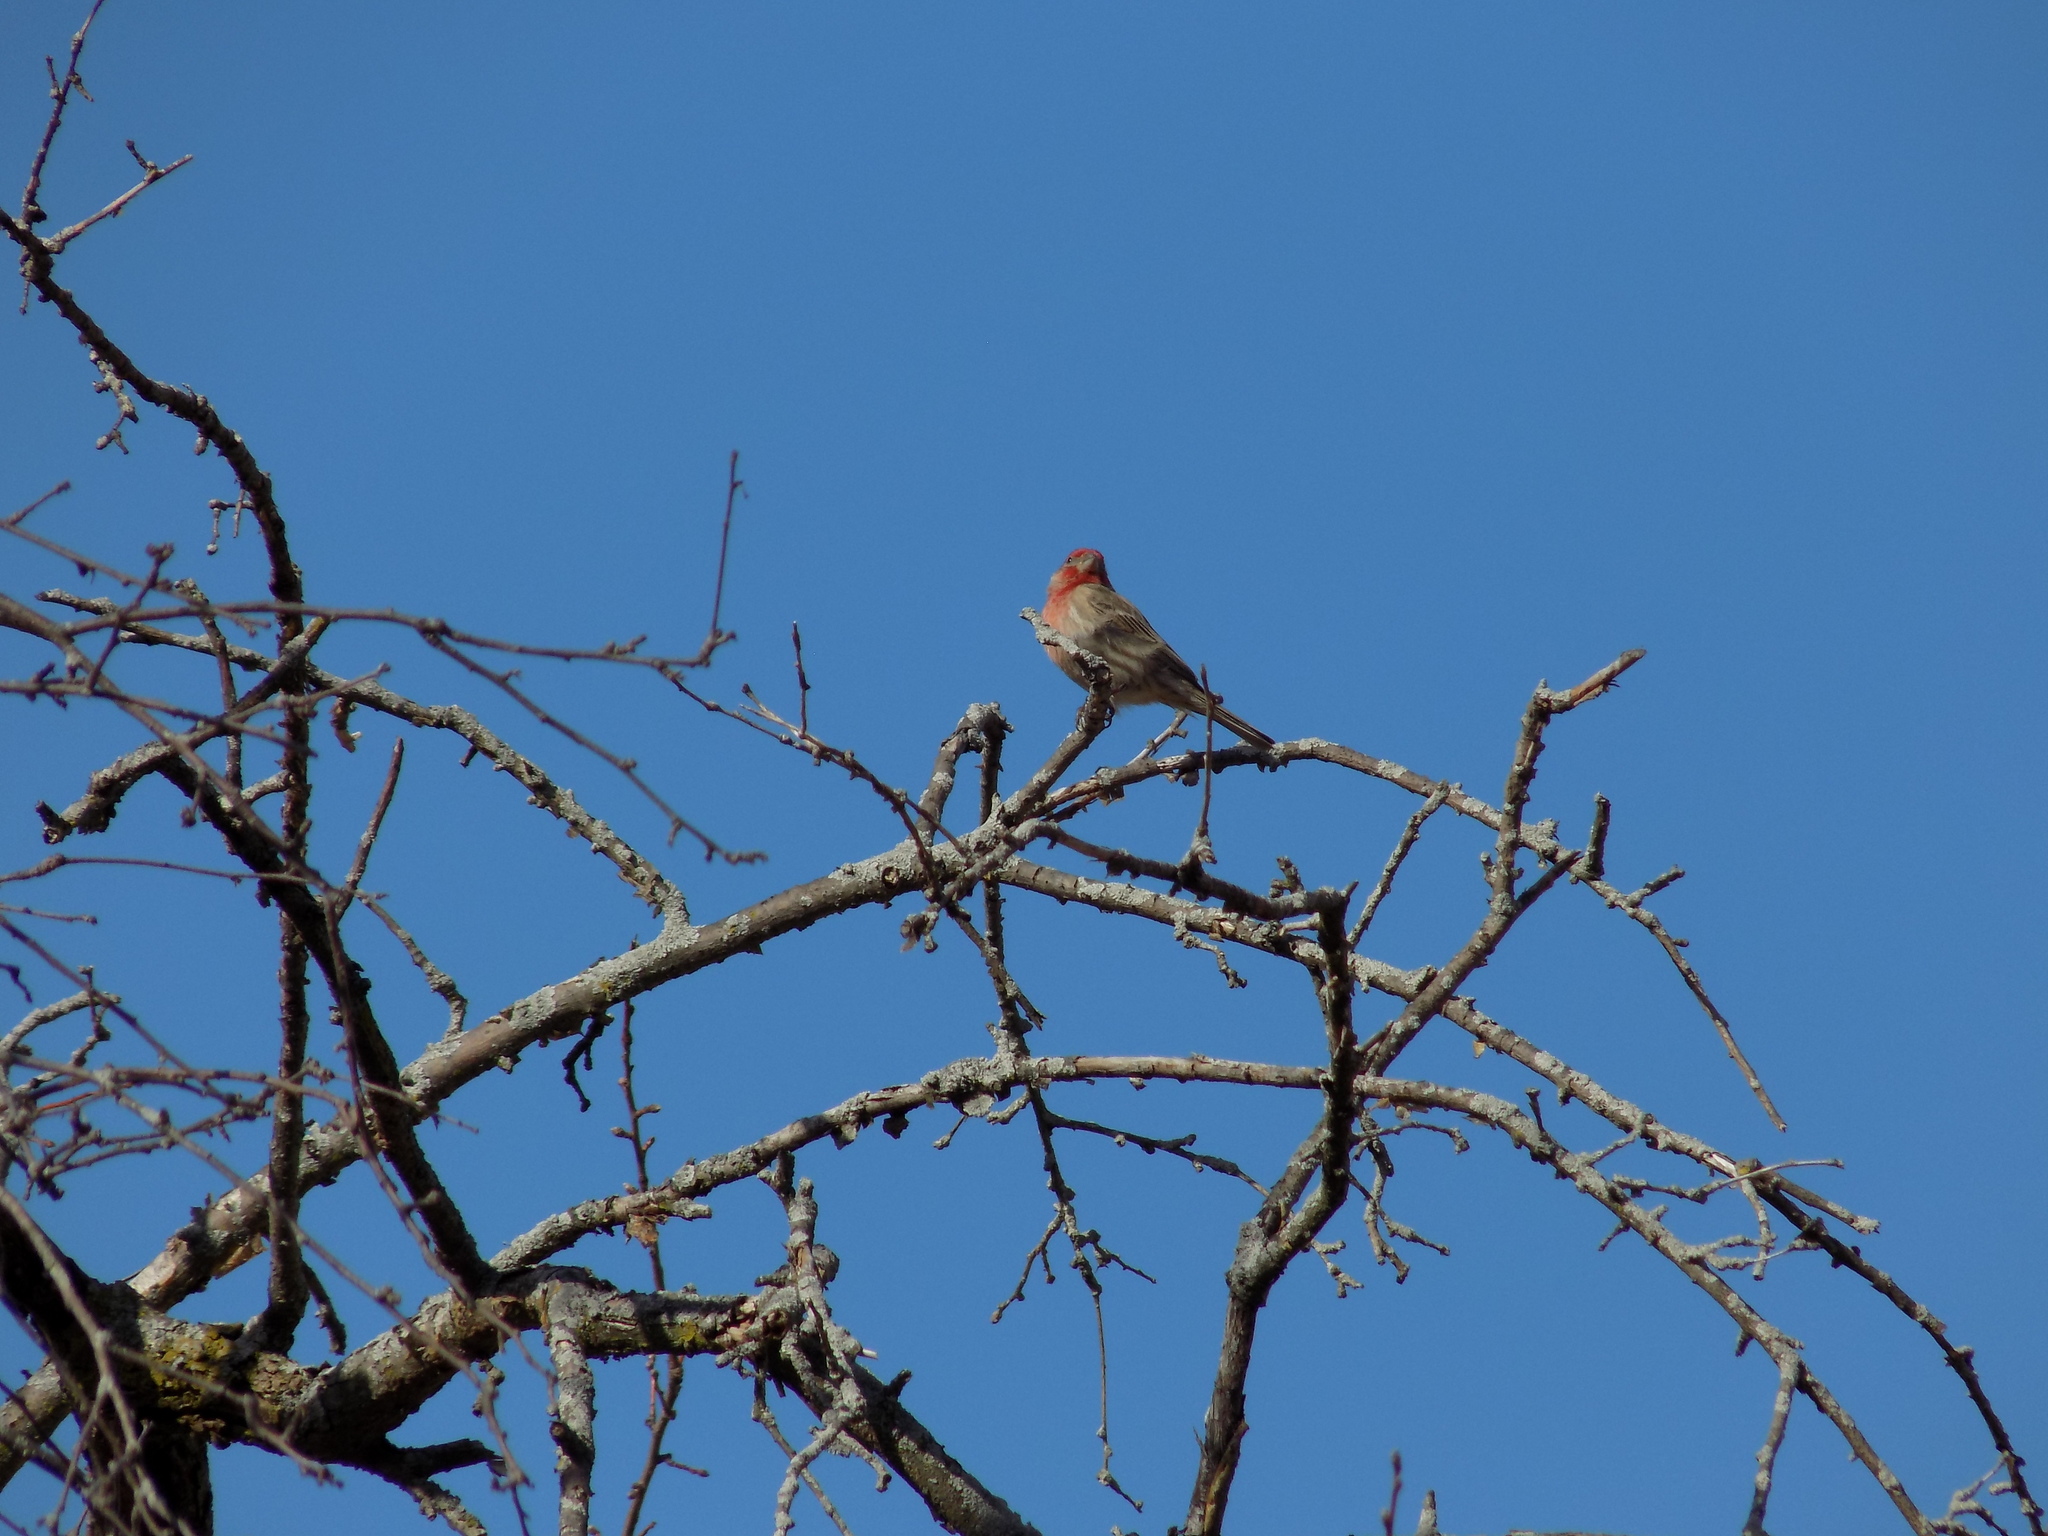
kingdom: Animalia
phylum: Chordata
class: Aves
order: Passeriformes
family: Fringillidae
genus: Haemorhous
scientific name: Haemorhous mexicanus
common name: House finch
